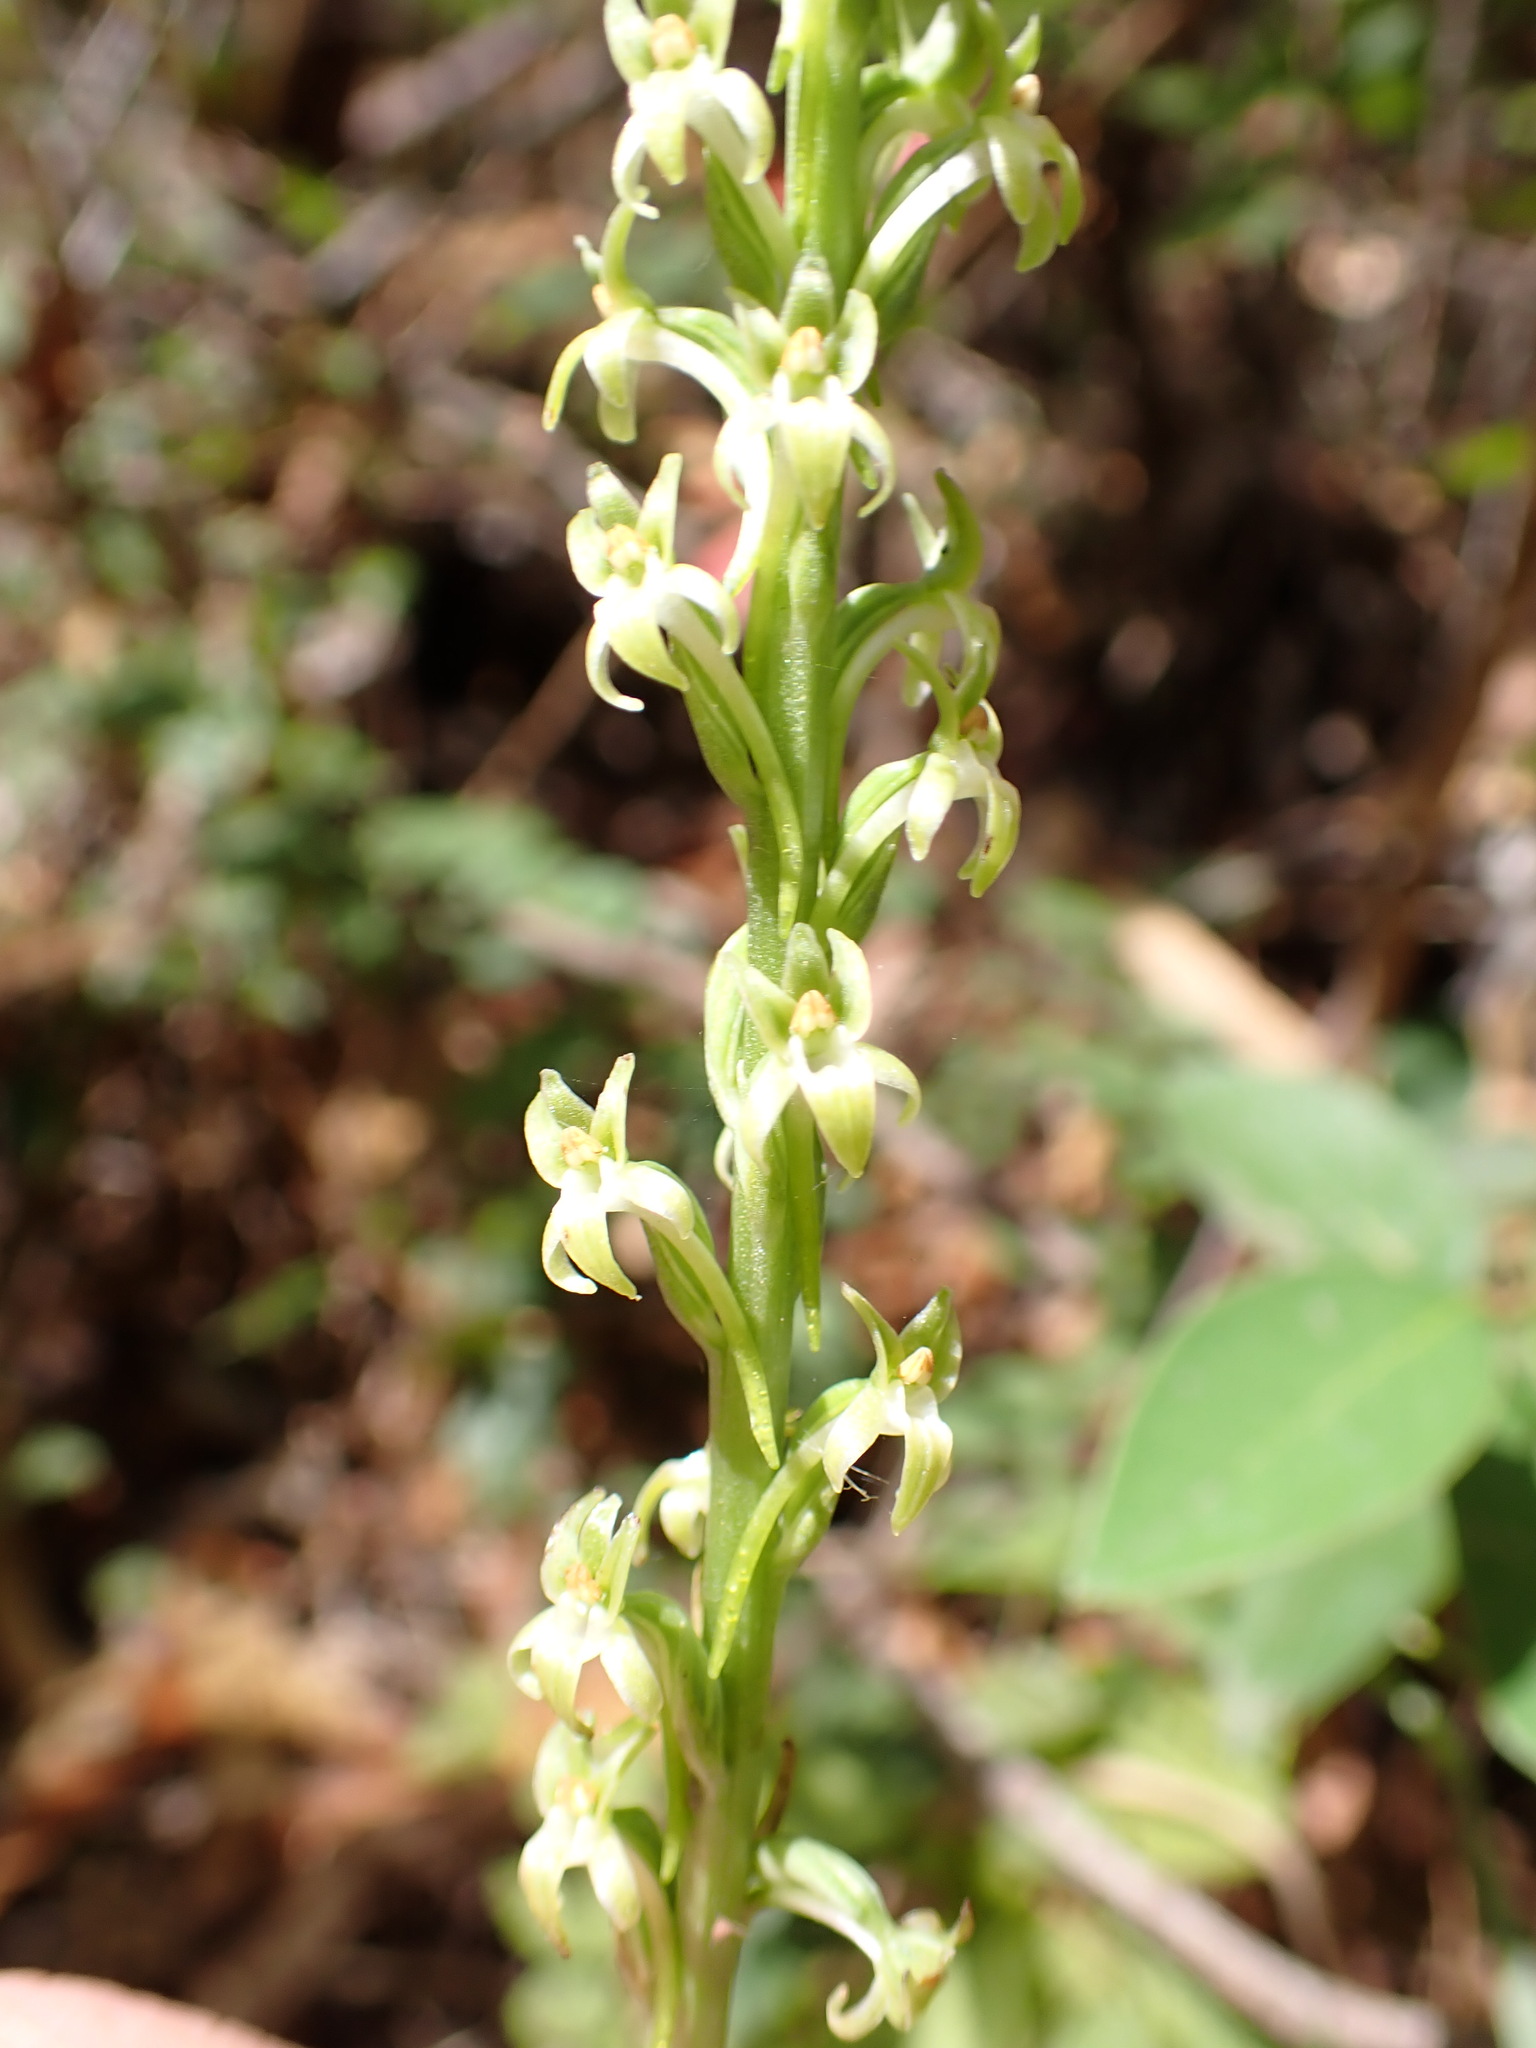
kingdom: Plantae
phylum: Tracheophyta
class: Liliopsida
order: Asparagales
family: Orchidaceae
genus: Platanthera
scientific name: Platanthera elongata
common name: Dense-flowered rein orchid
